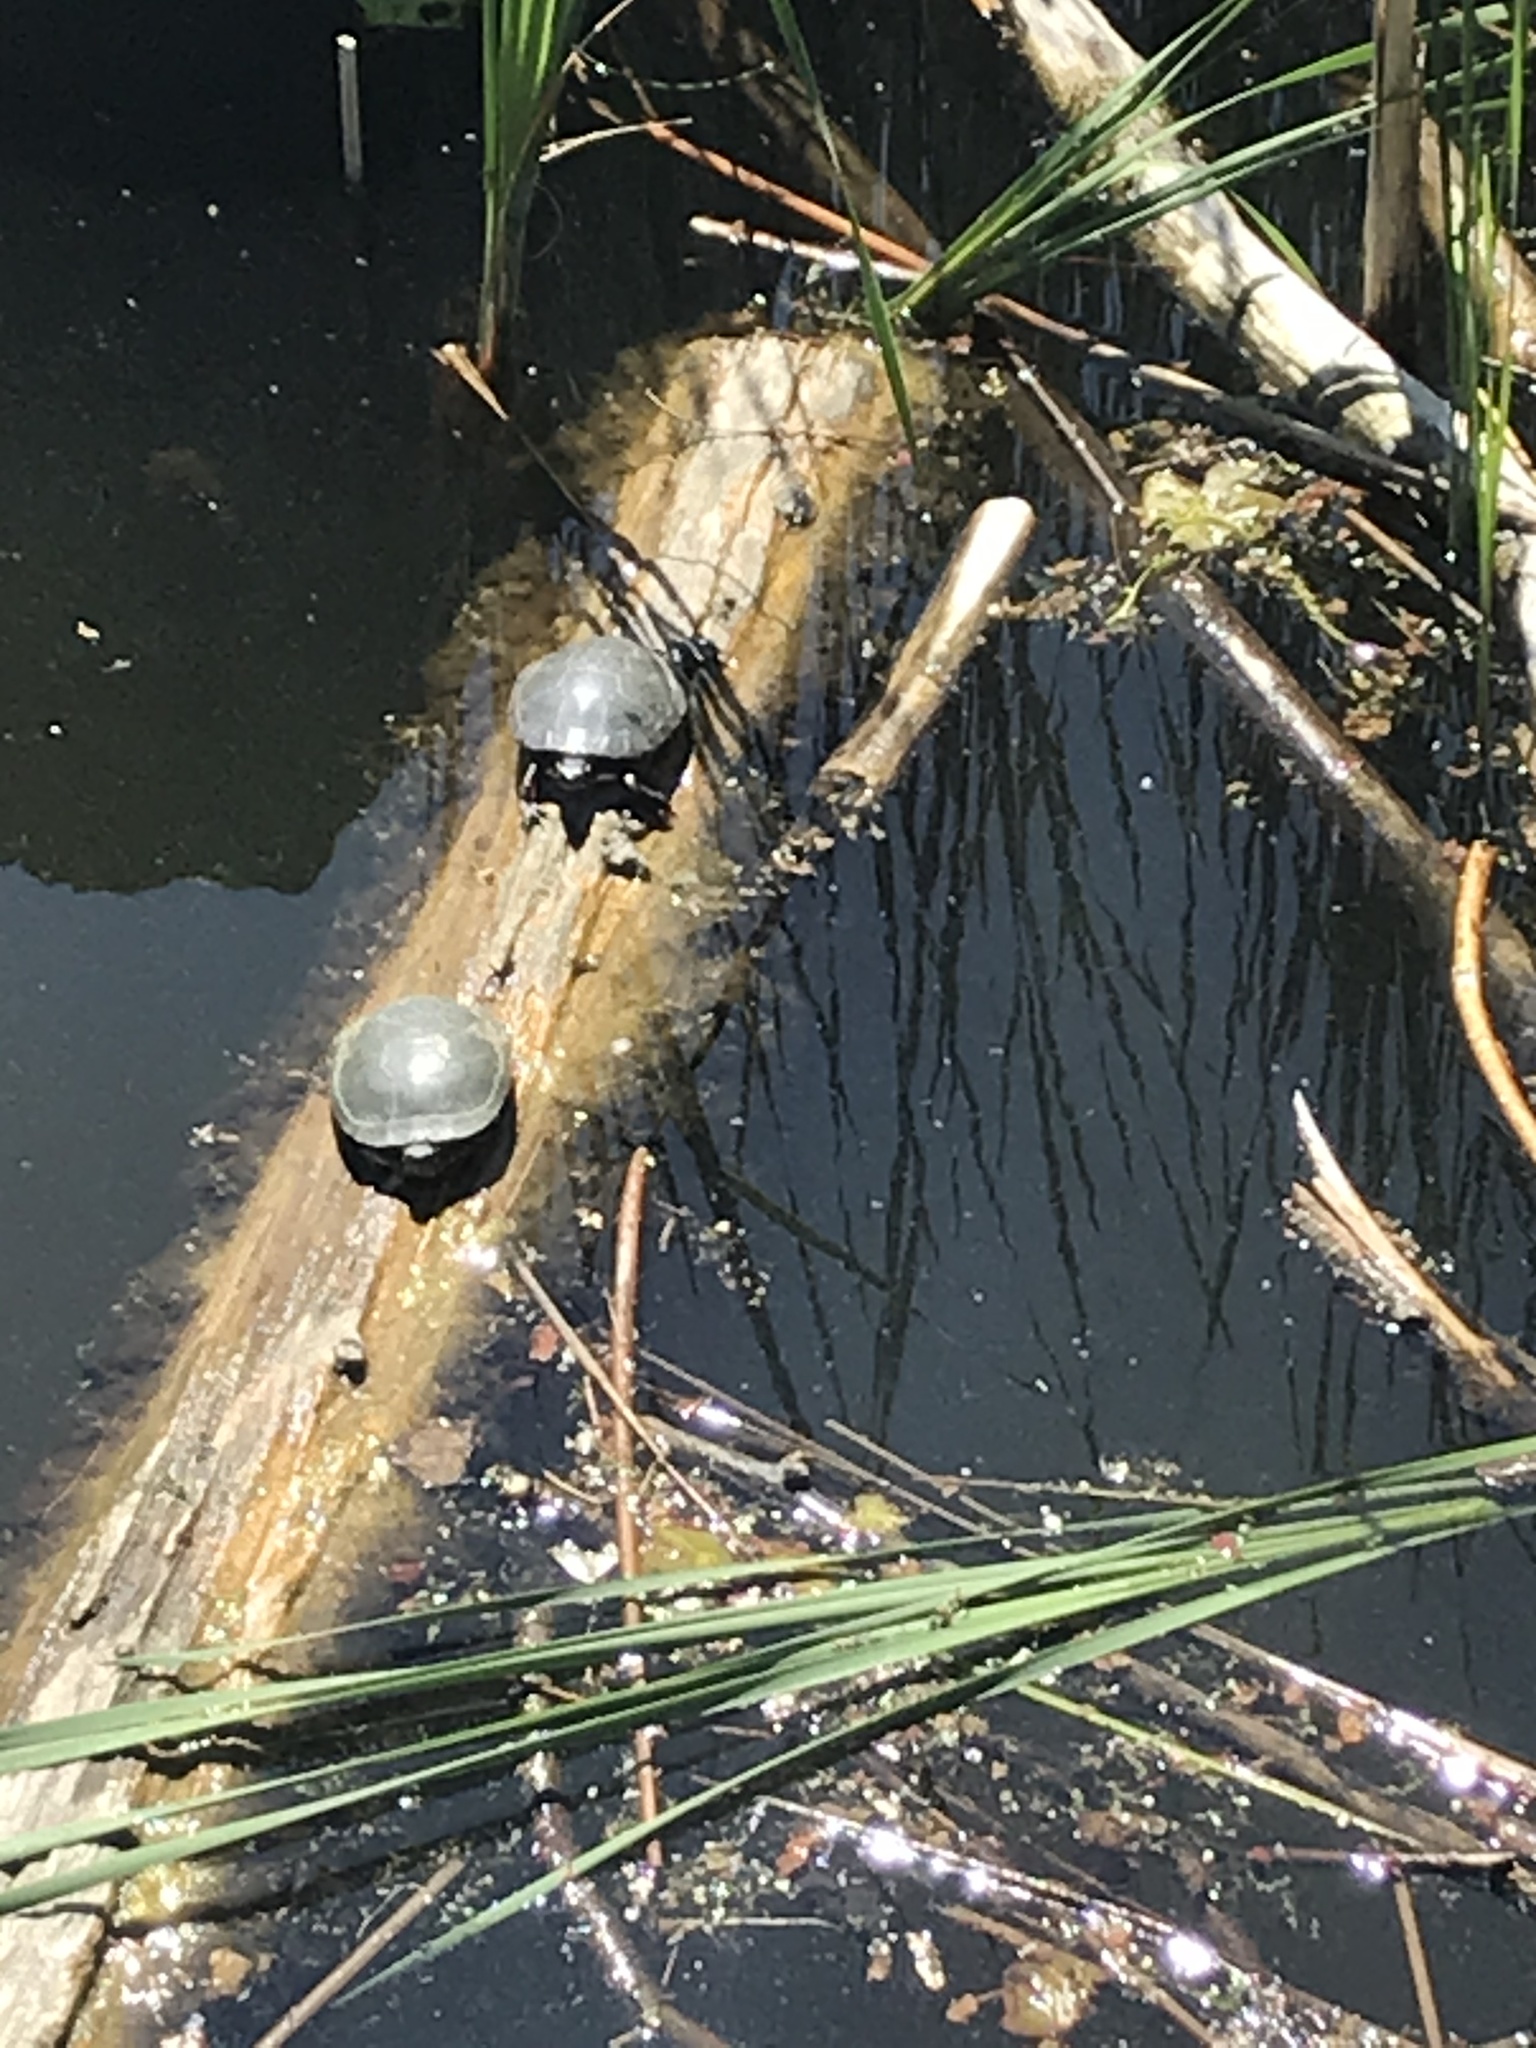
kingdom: Animalia
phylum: Chordata
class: Testudines
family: Emydidae
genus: Chrysemys
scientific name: Chrysemys picta
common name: Painted turtle
